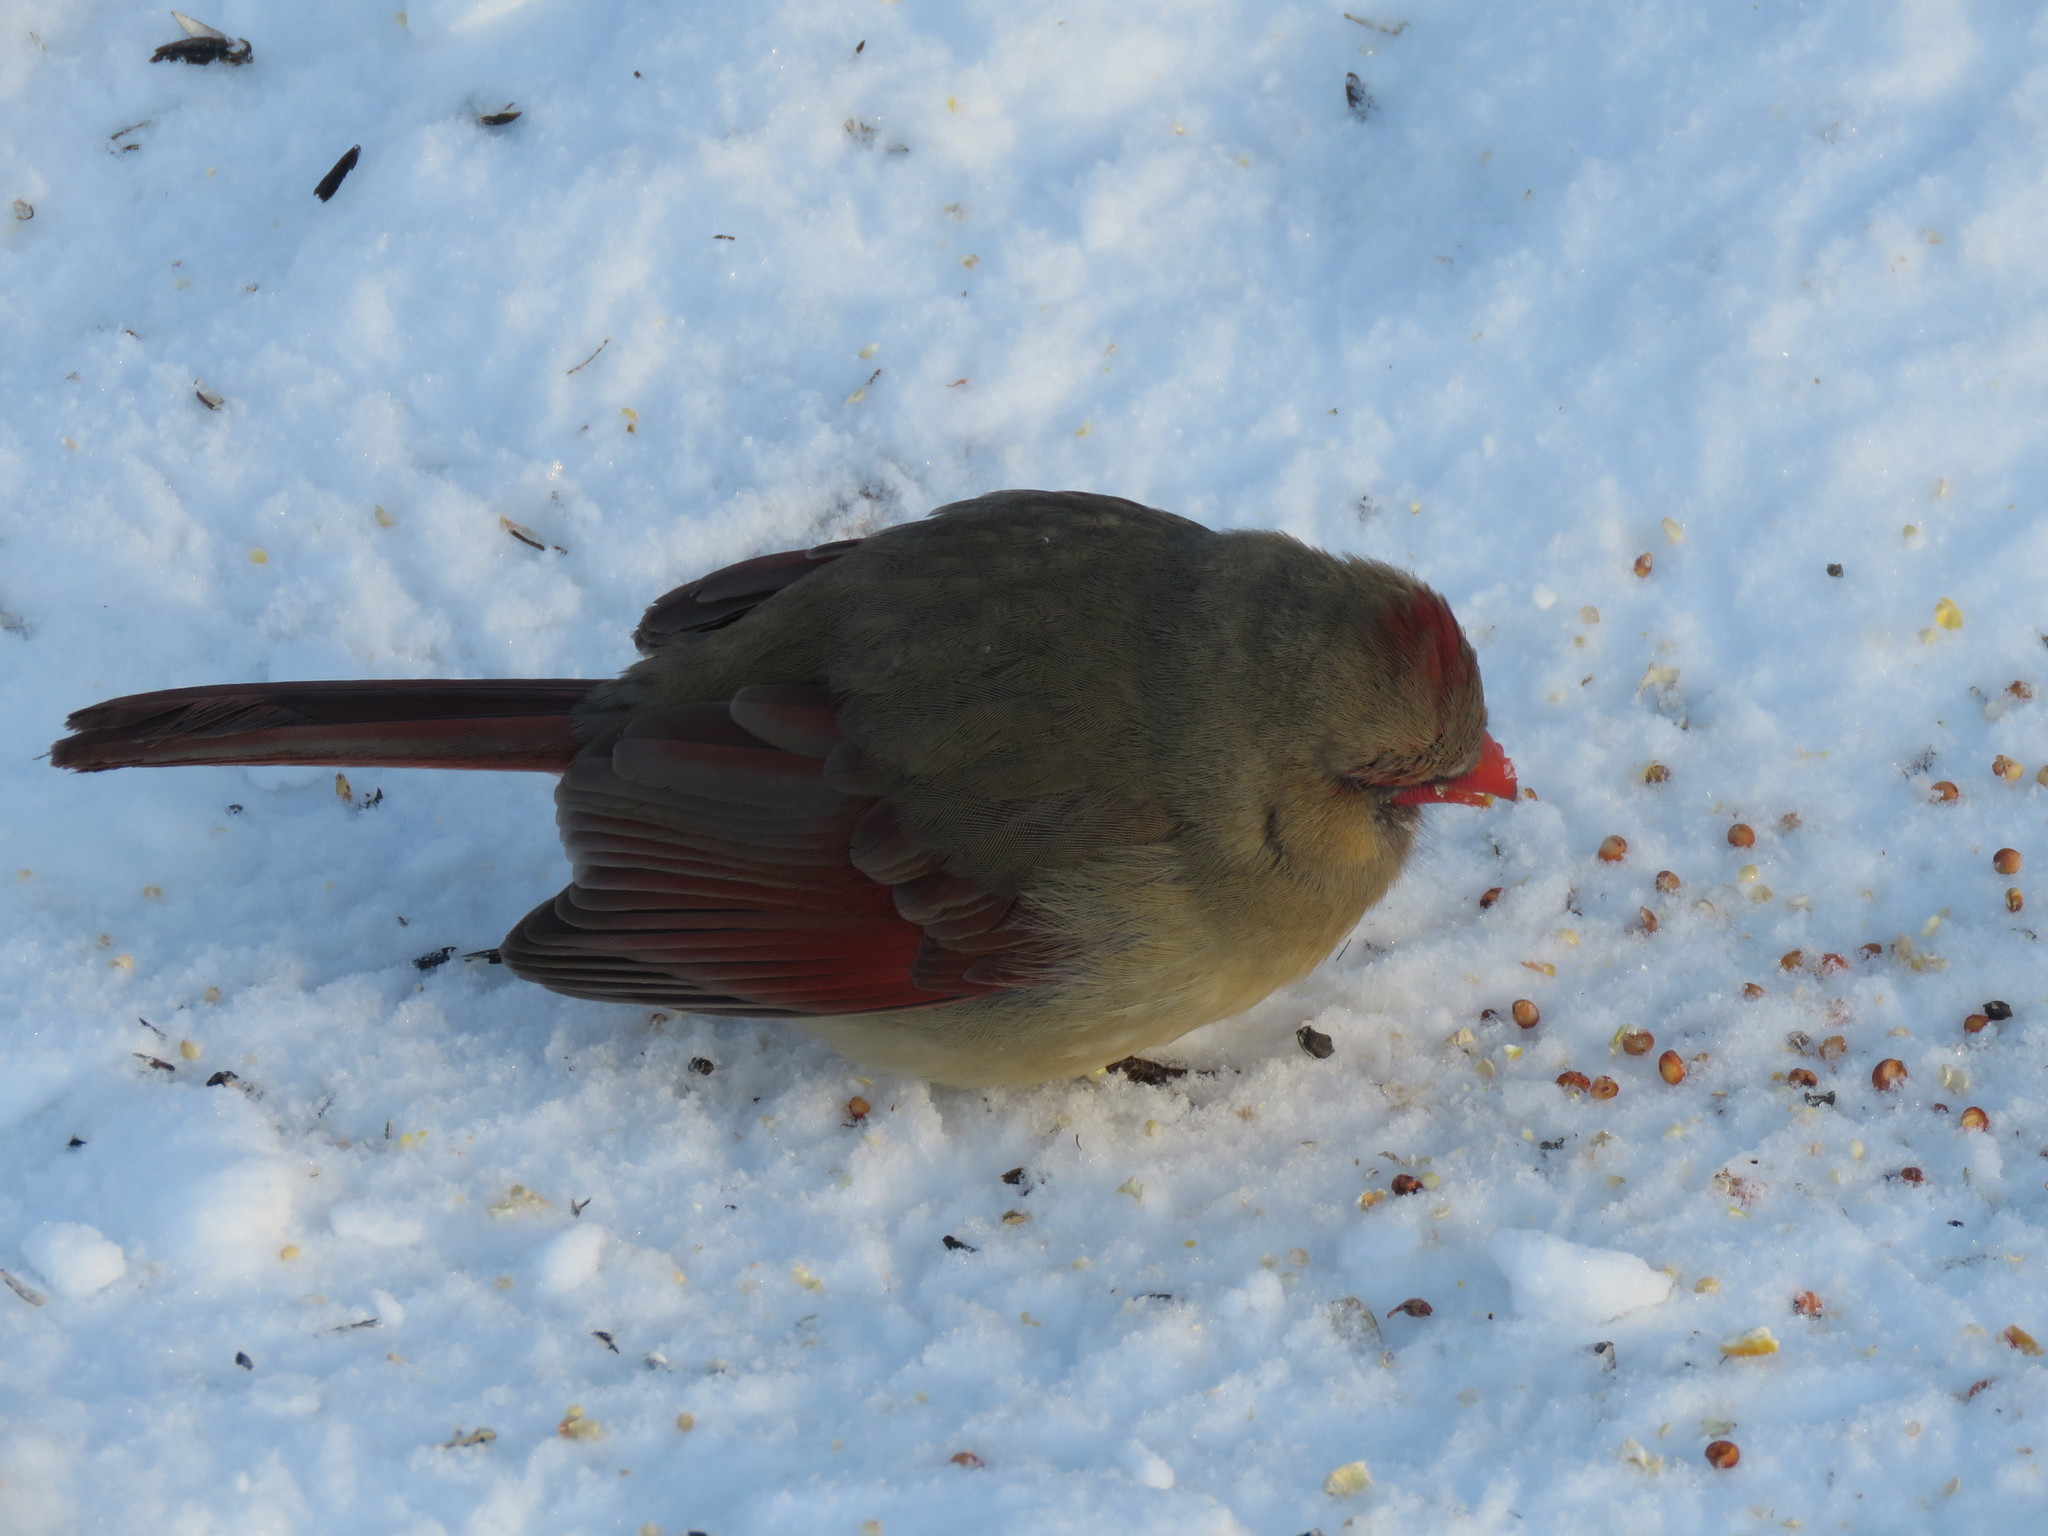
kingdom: Animalia
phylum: Chordata
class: Aves
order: Passeriformes
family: Cardinalidae
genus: Cardinalis
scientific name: Cardinalis cardinalis
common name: Northern cardinal
